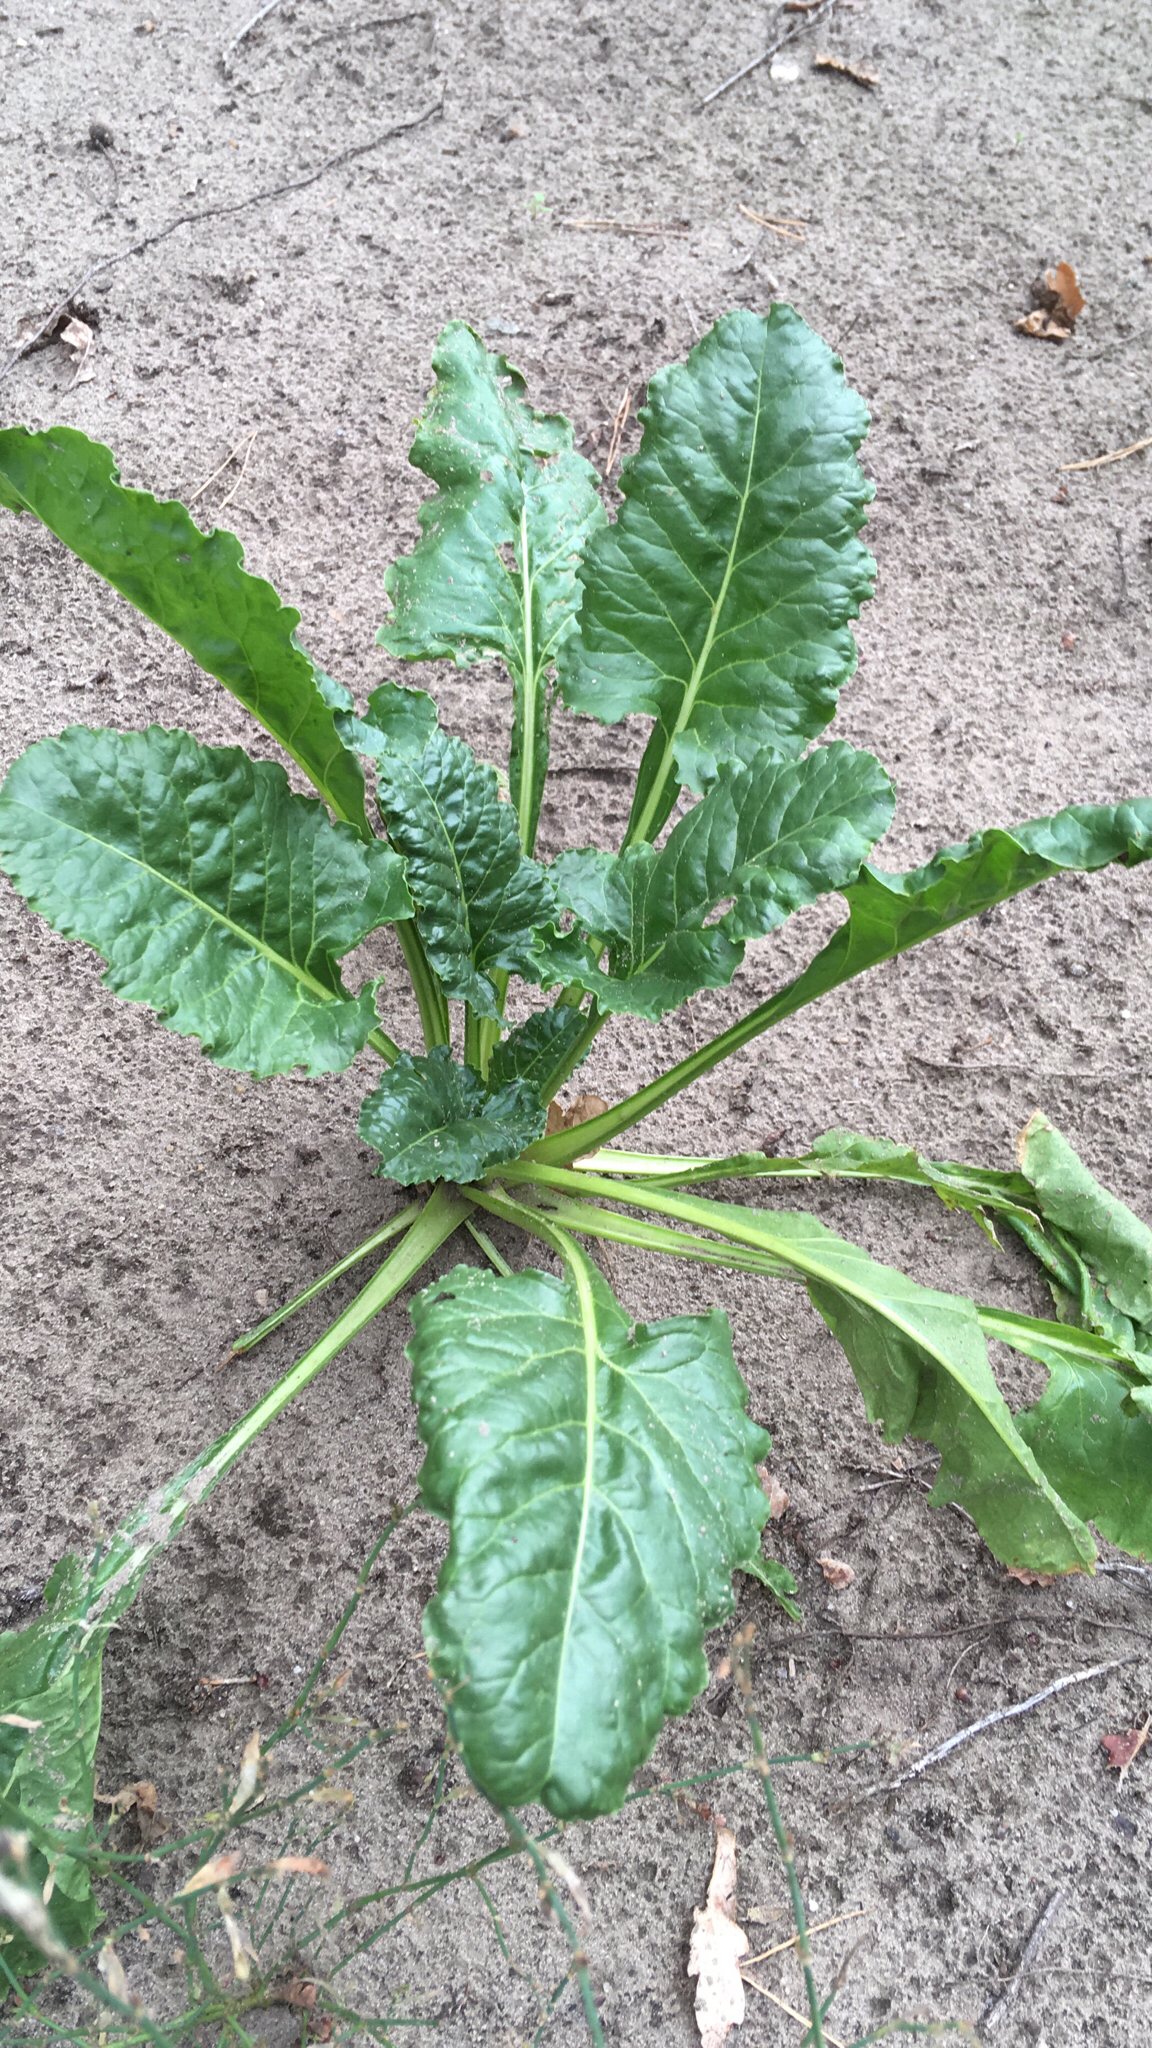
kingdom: Plantae
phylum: Tracheophyta
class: Magnoliopsida
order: Caryophyllales
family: Amaranthaceae
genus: Beta
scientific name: Beta vulgaris
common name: Beet
